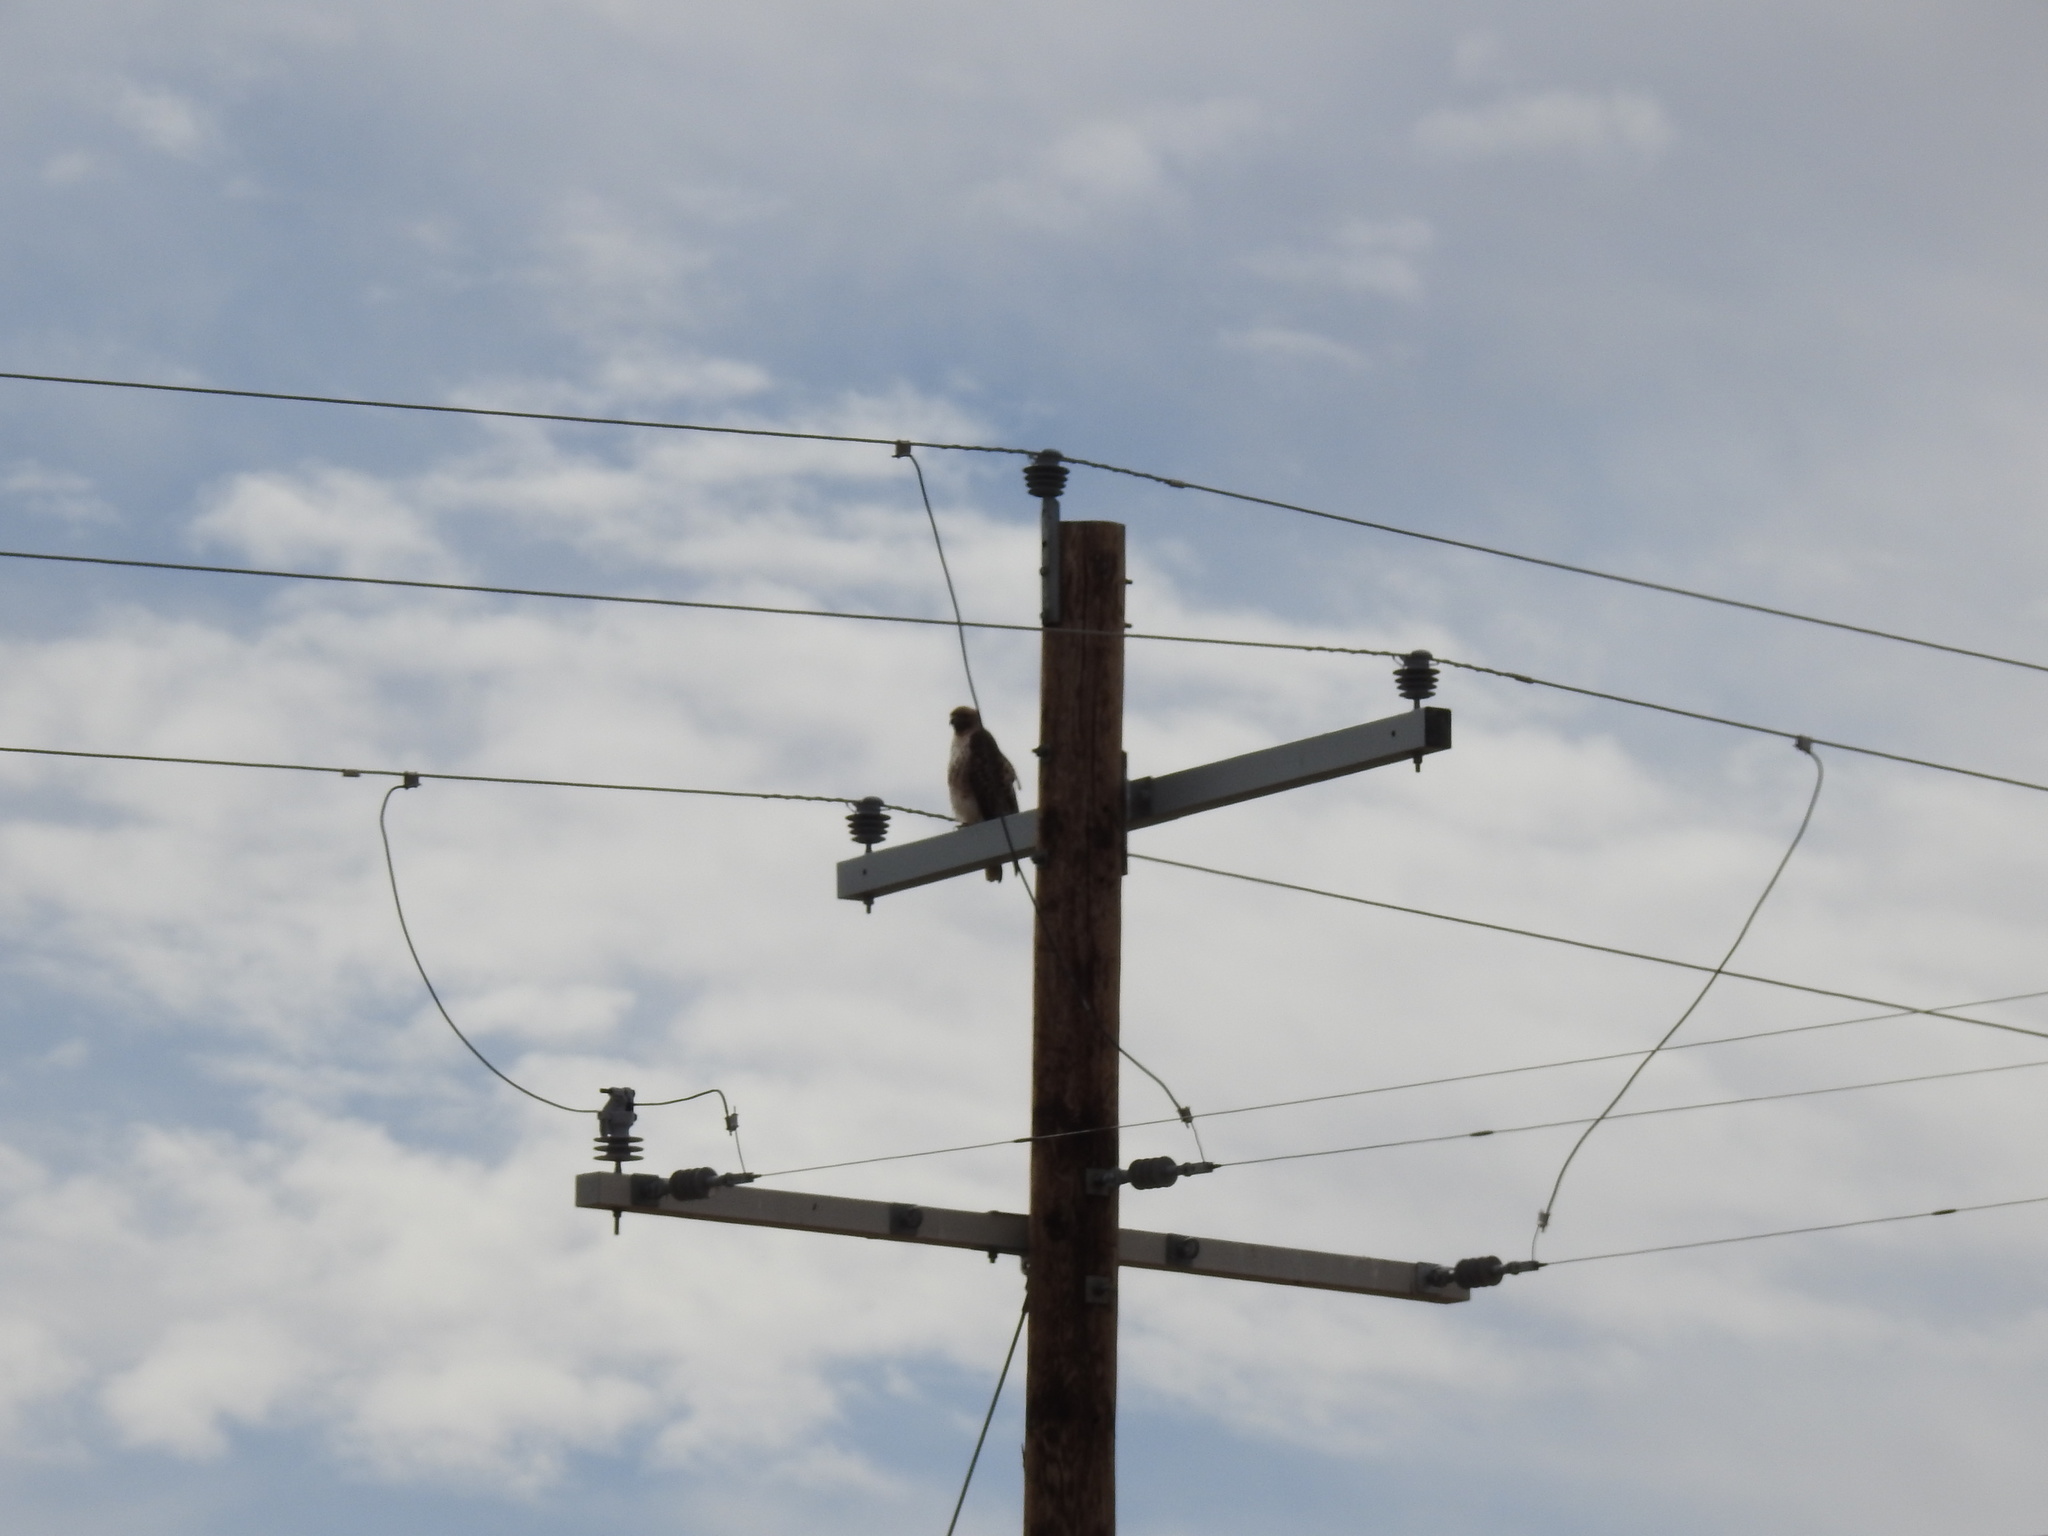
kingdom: Animalia
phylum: Chordata
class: Aves
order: Accipitriformes
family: Accipitridae
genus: Buteo
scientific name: Buteo jamaicensis
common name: Red-tailed hawk
